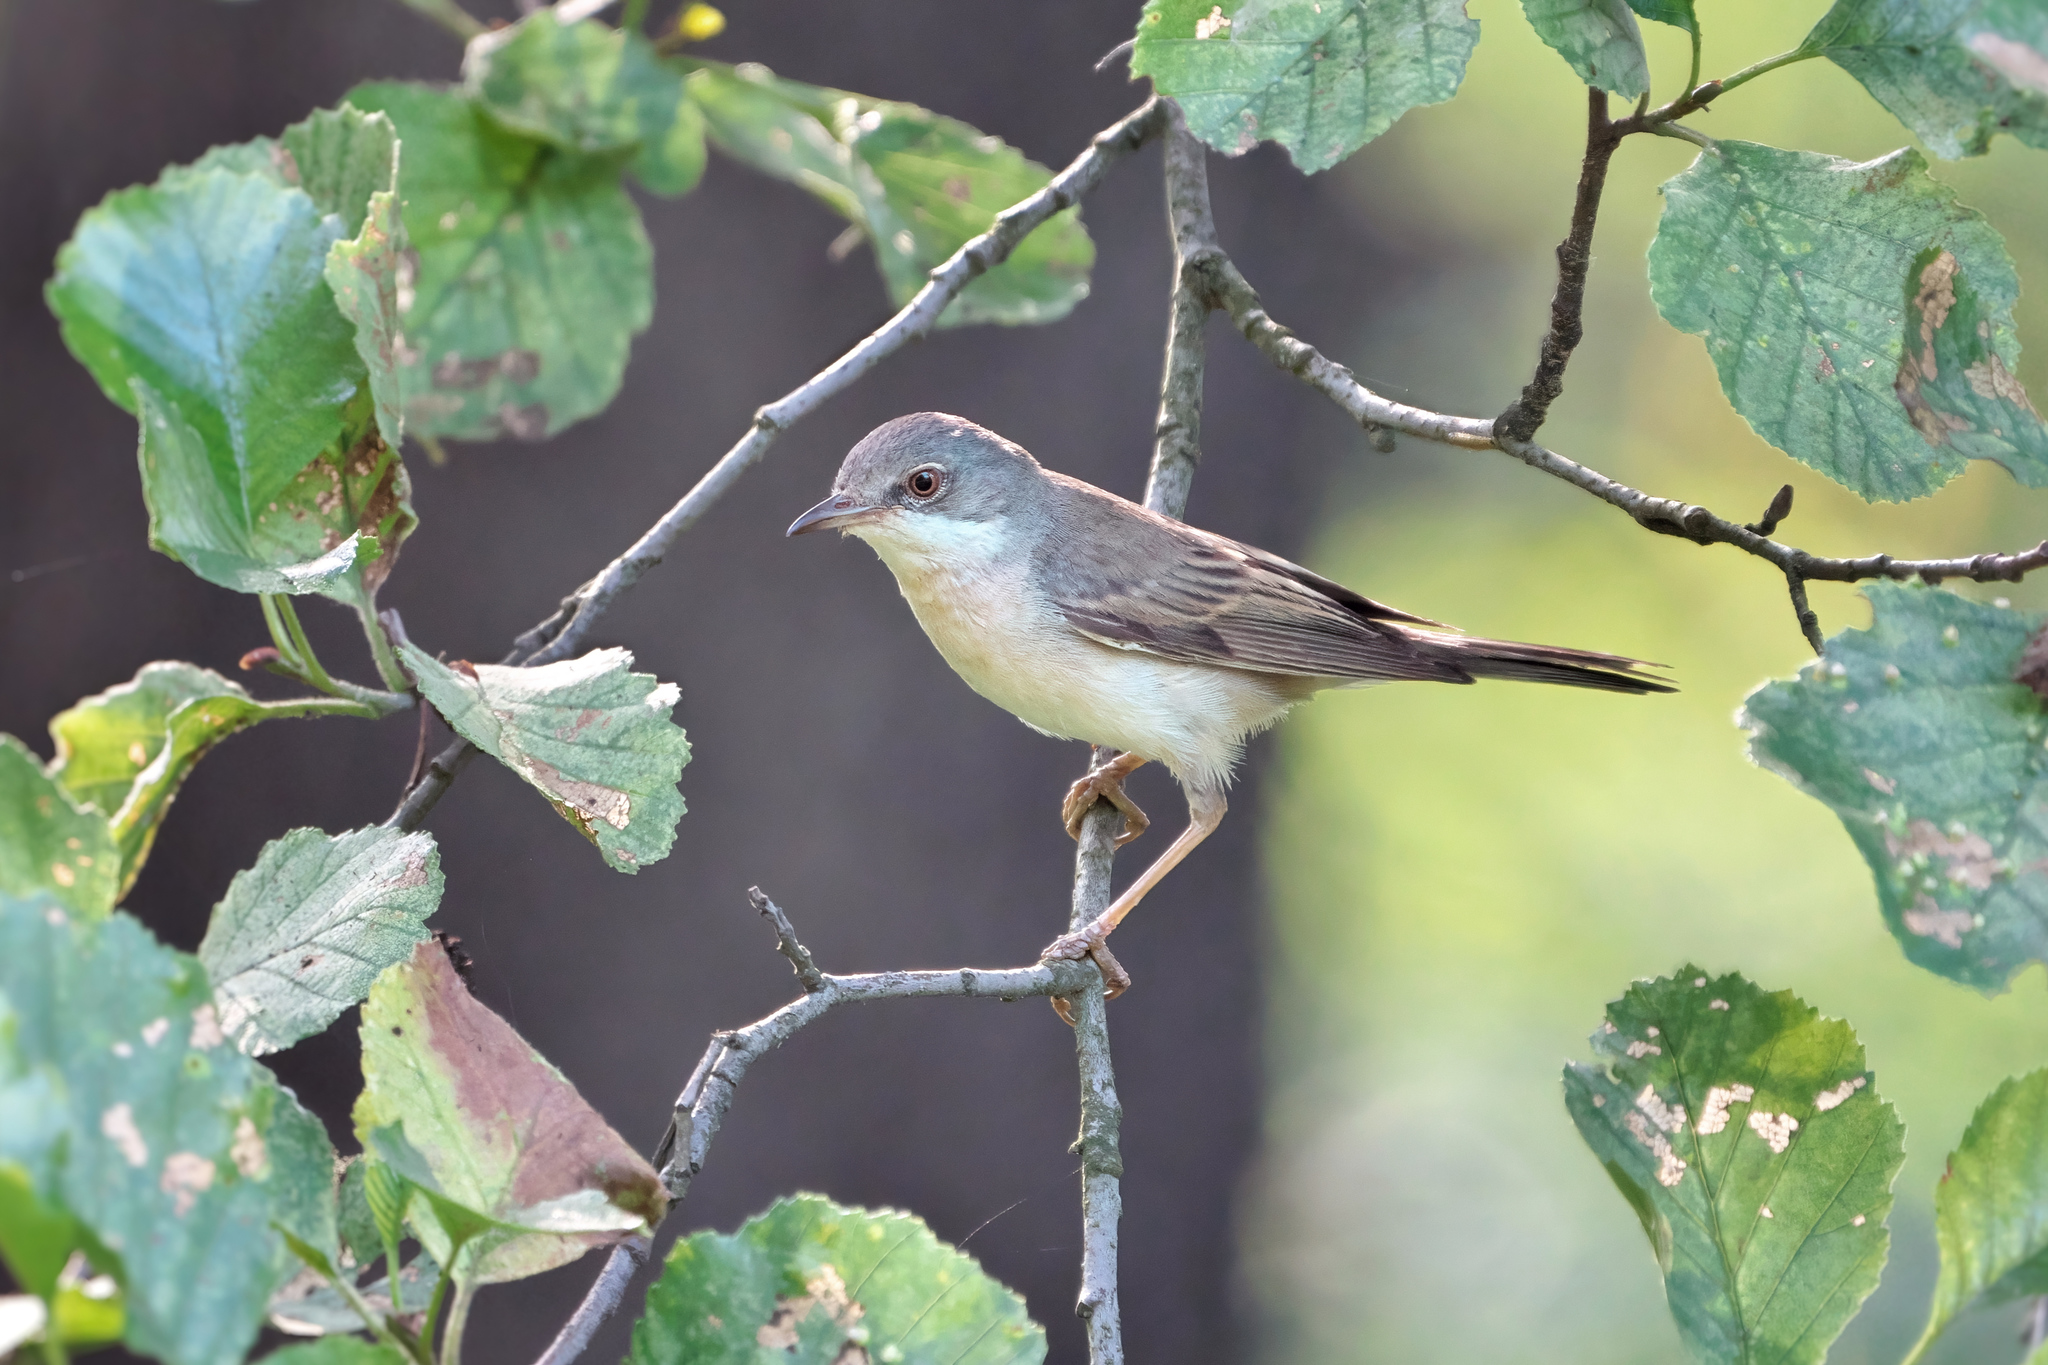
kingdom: Animalia
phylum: Chordata
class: Aves
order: Passeriformes
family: Sylviidae
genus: Sylvia
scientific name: Sylvia communis
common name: Common whitethroat
